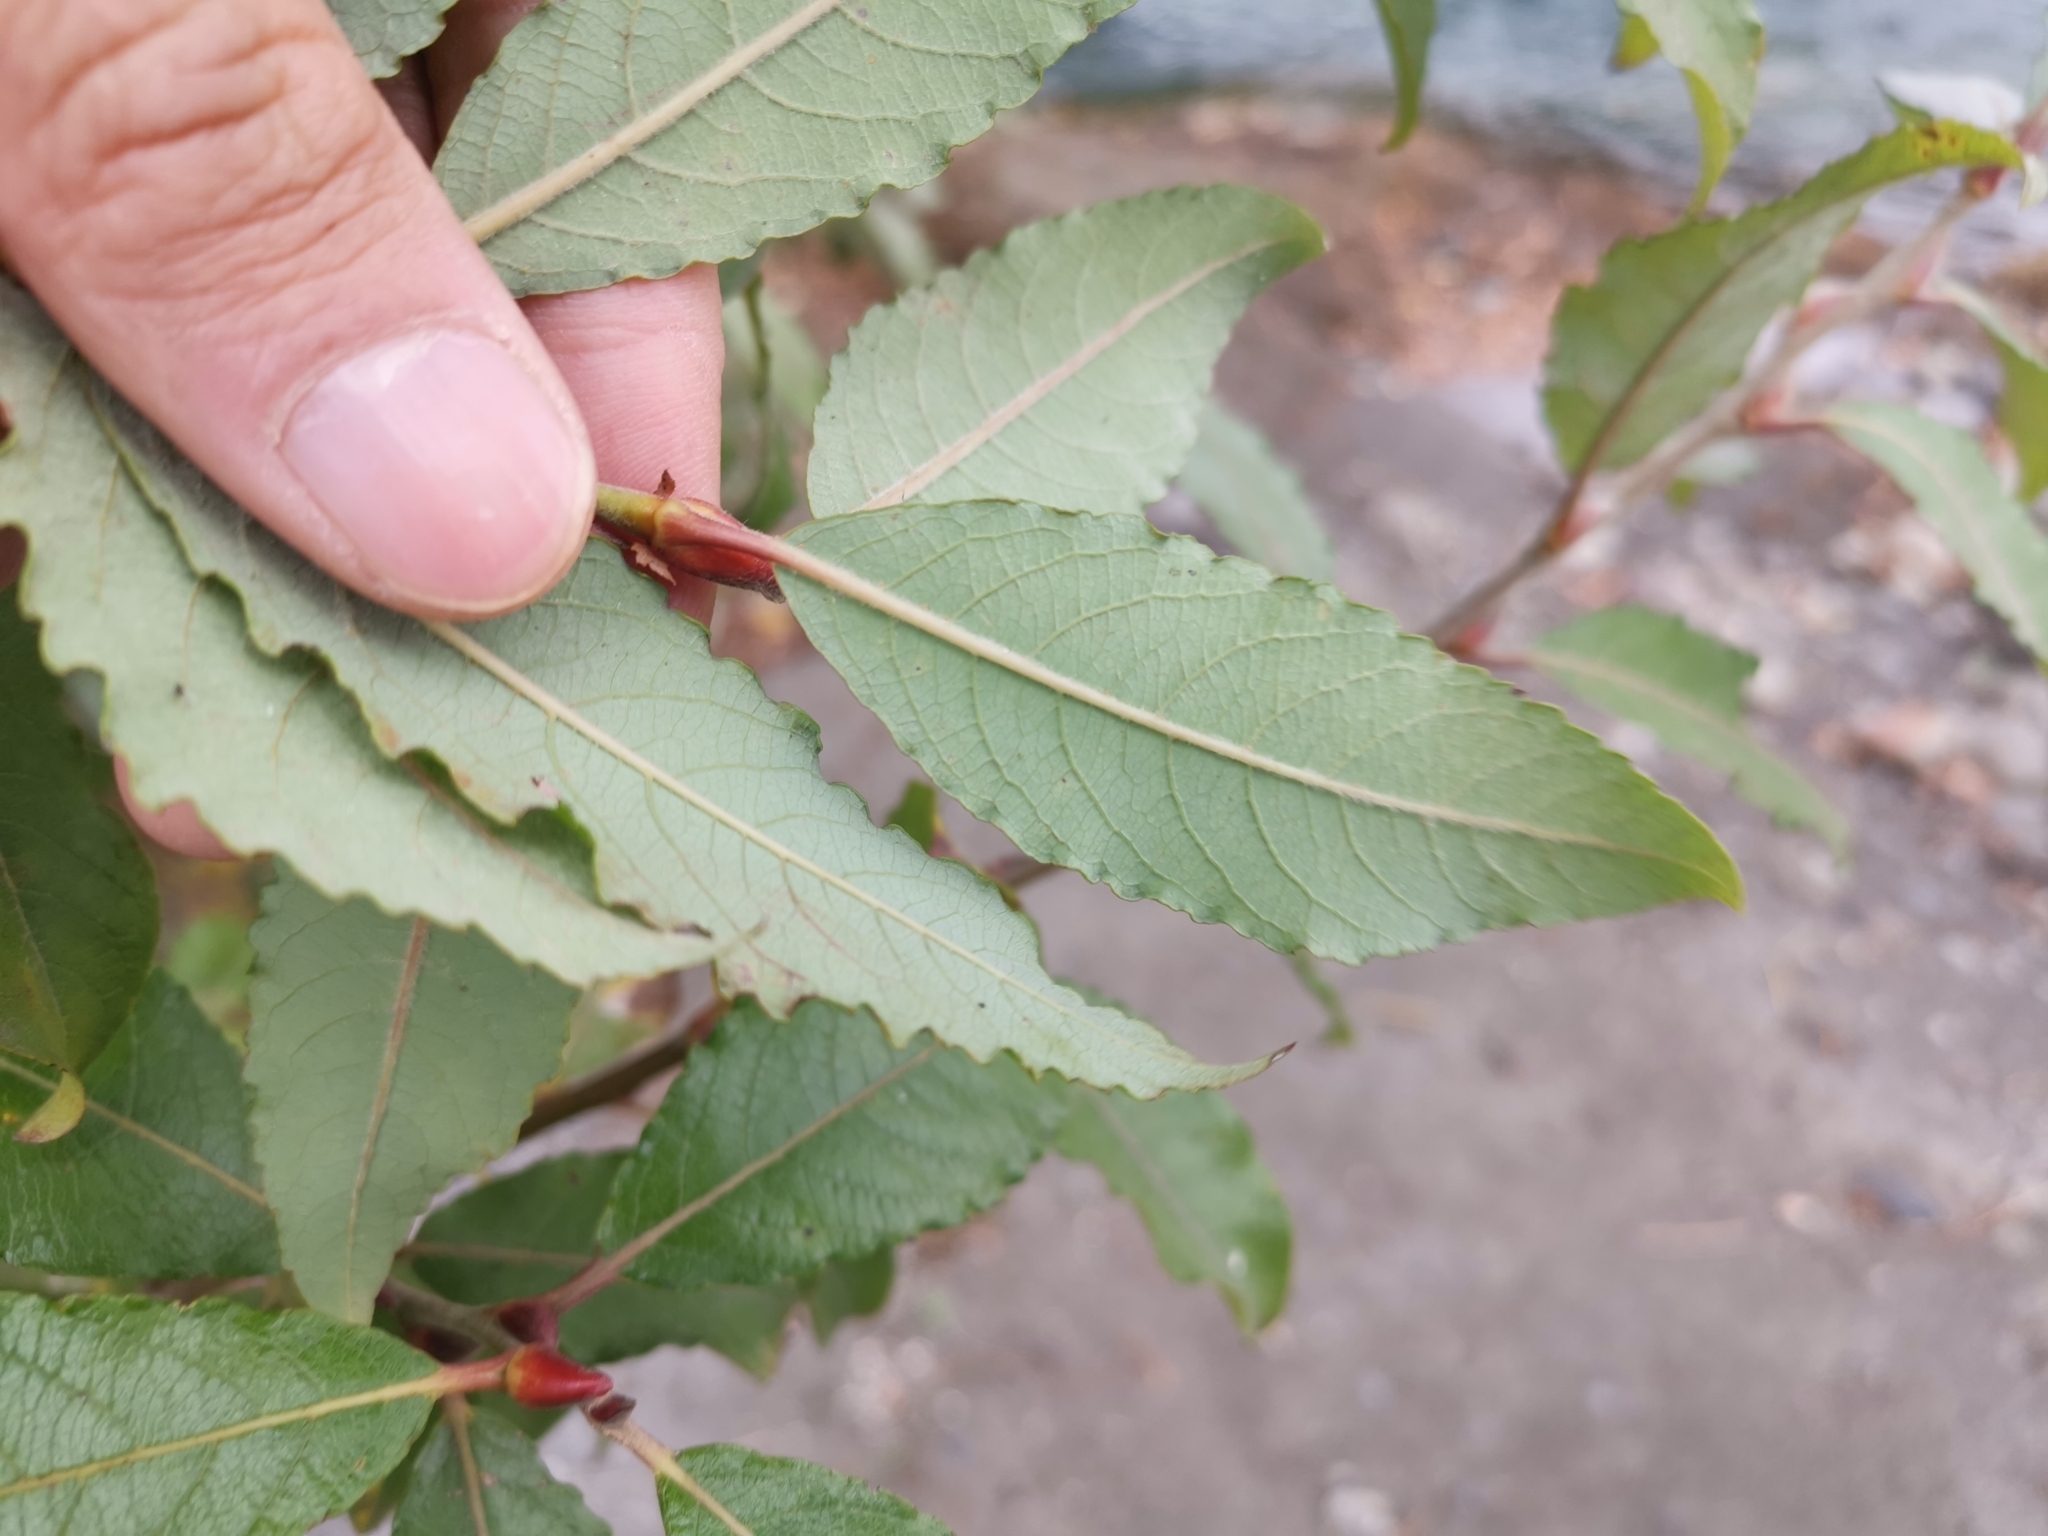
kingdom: Plantae
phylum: Tracheophyta
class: Magnoliopsida
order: Malpighiales
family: Salicaceae
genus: Salix
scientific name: Salix caprea
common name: Goat willow
